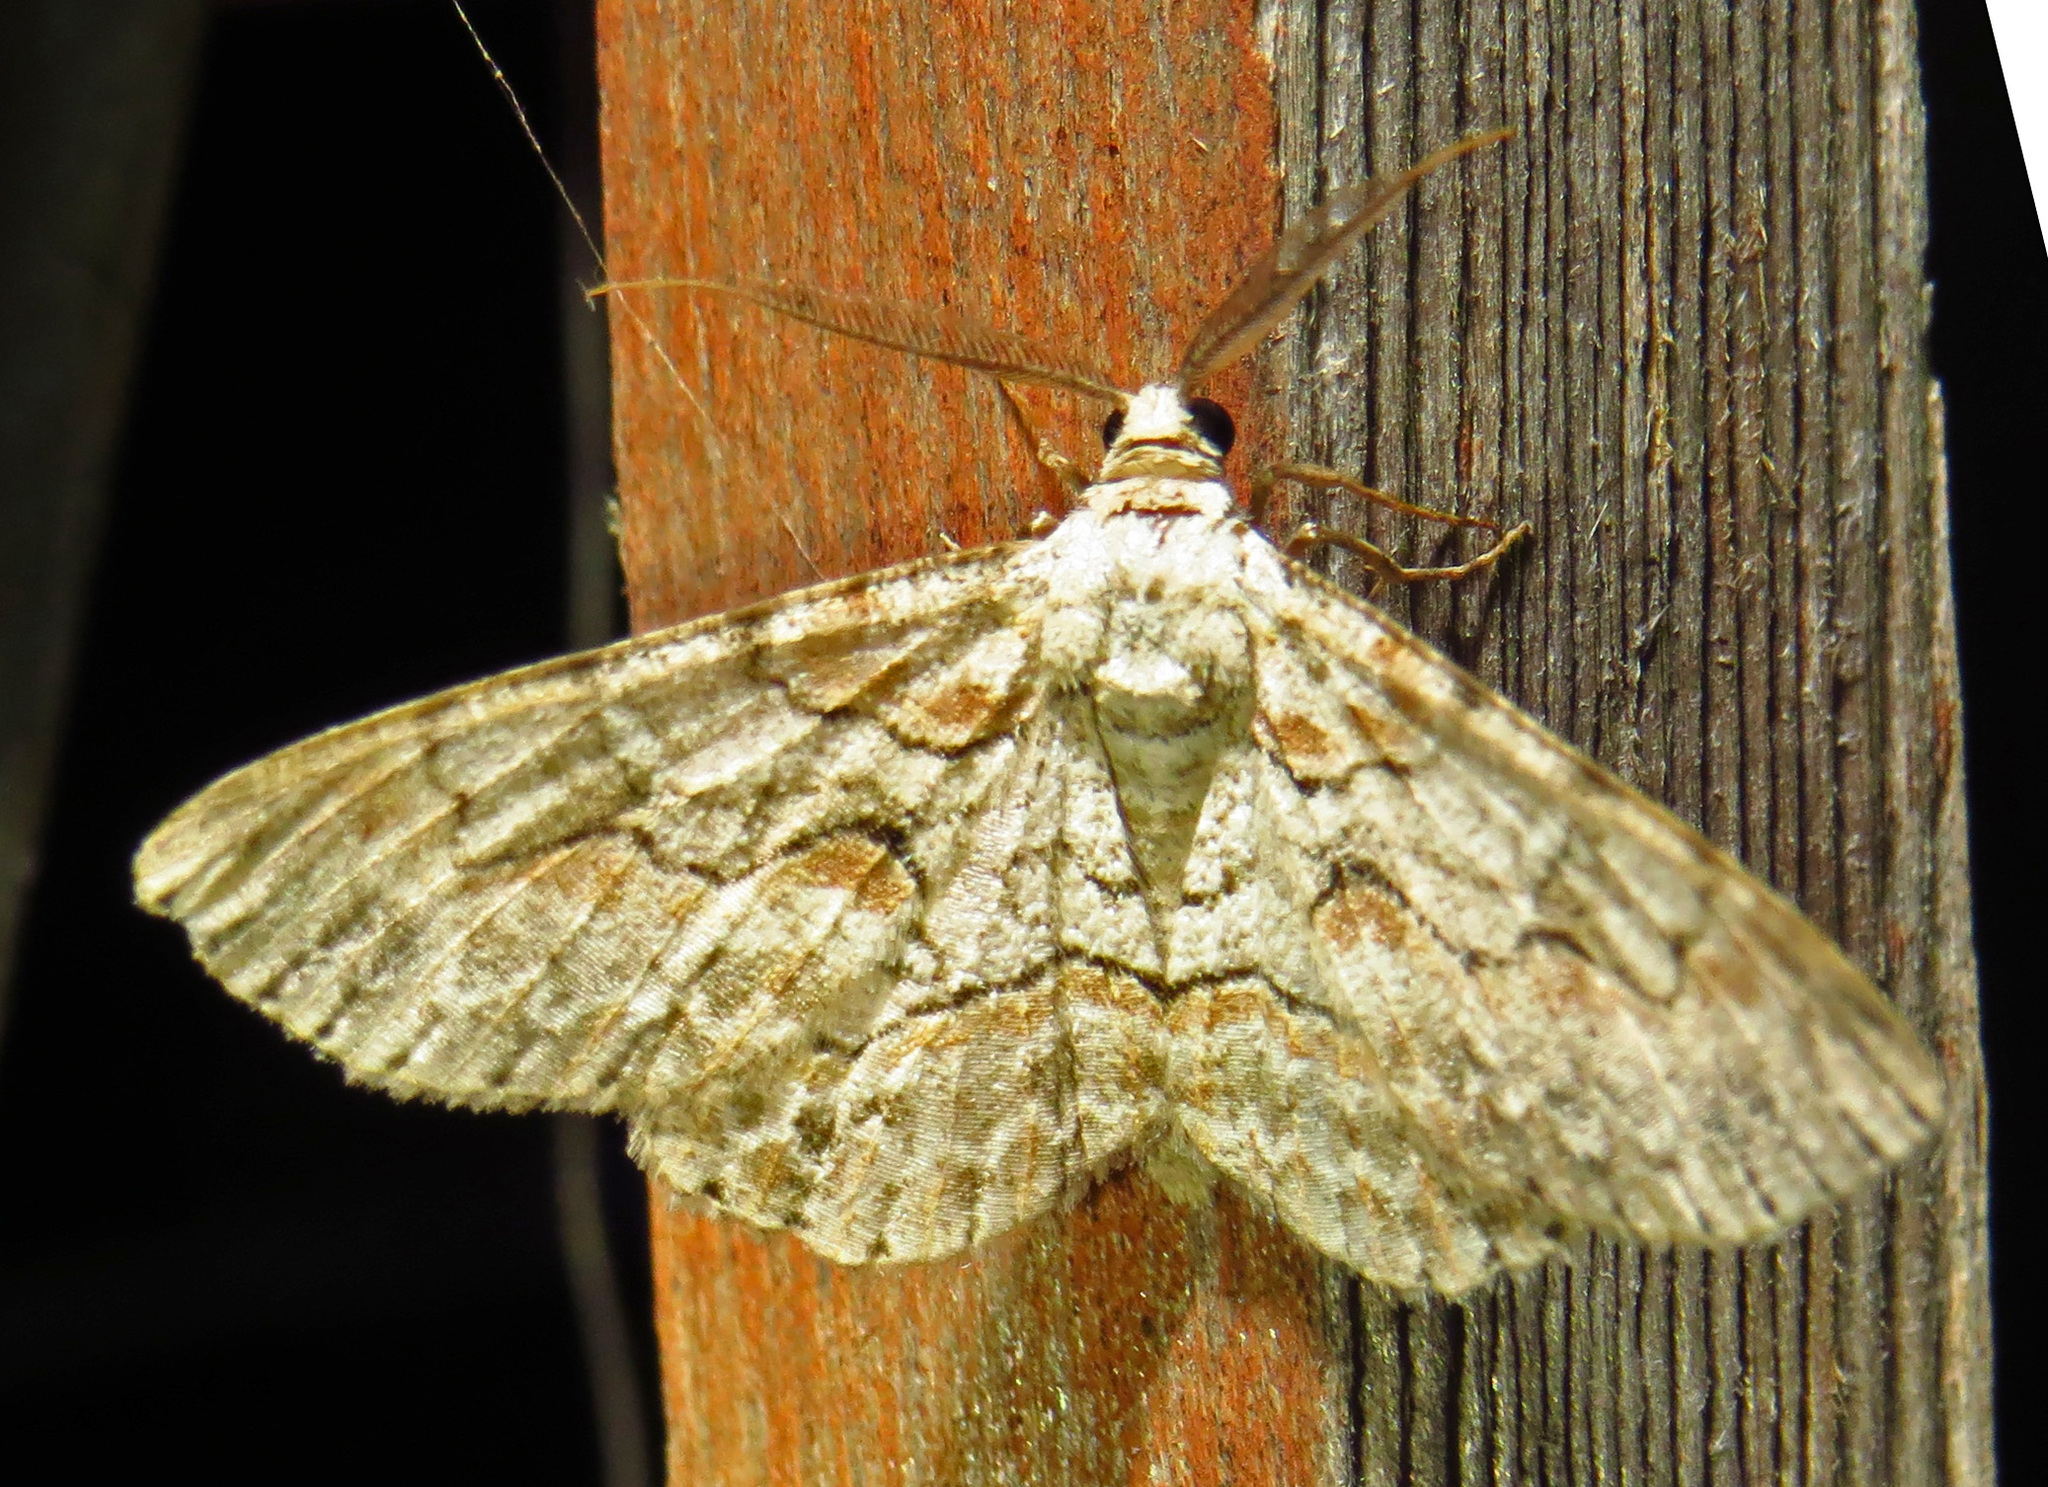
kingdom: Animalia
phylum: Arthropoda
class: Insecta
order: Lepidoptera
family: Geometridae
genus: Iridopsis
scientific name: Iridopsis defectaria
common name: Brown-shaded gray
